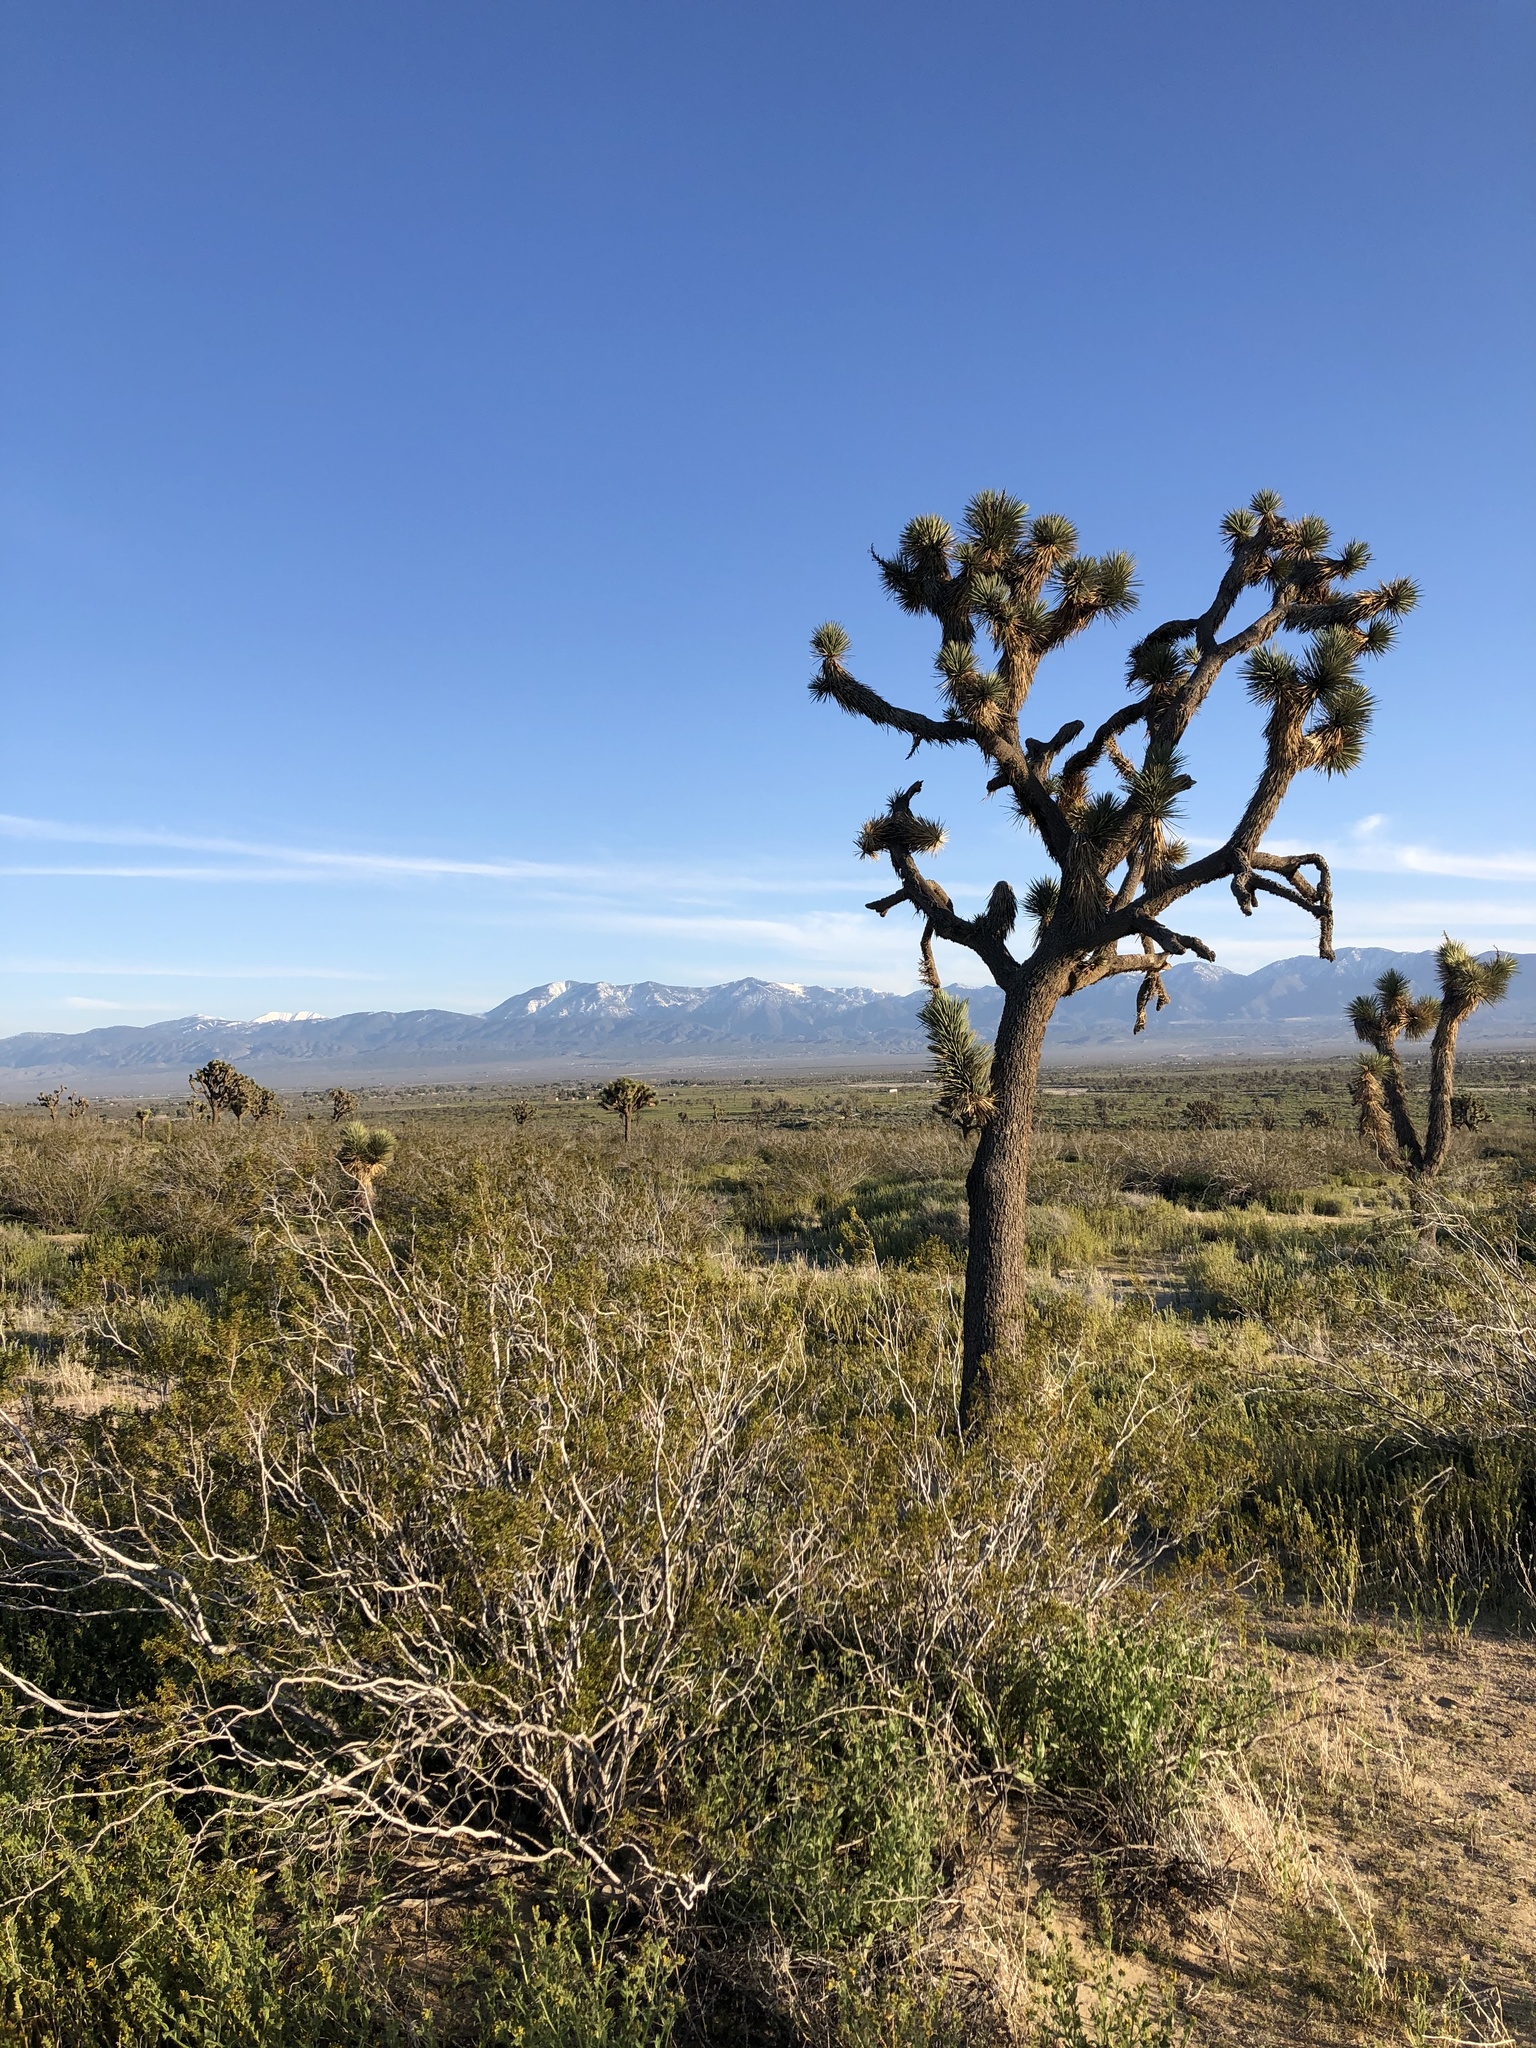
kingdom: Plantae
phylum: Tracheophyta
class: Liliopsida
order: Asparagales
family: Asparagaceae
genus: Yucca
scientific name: Yucca brevifolia
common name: Joshua tree
